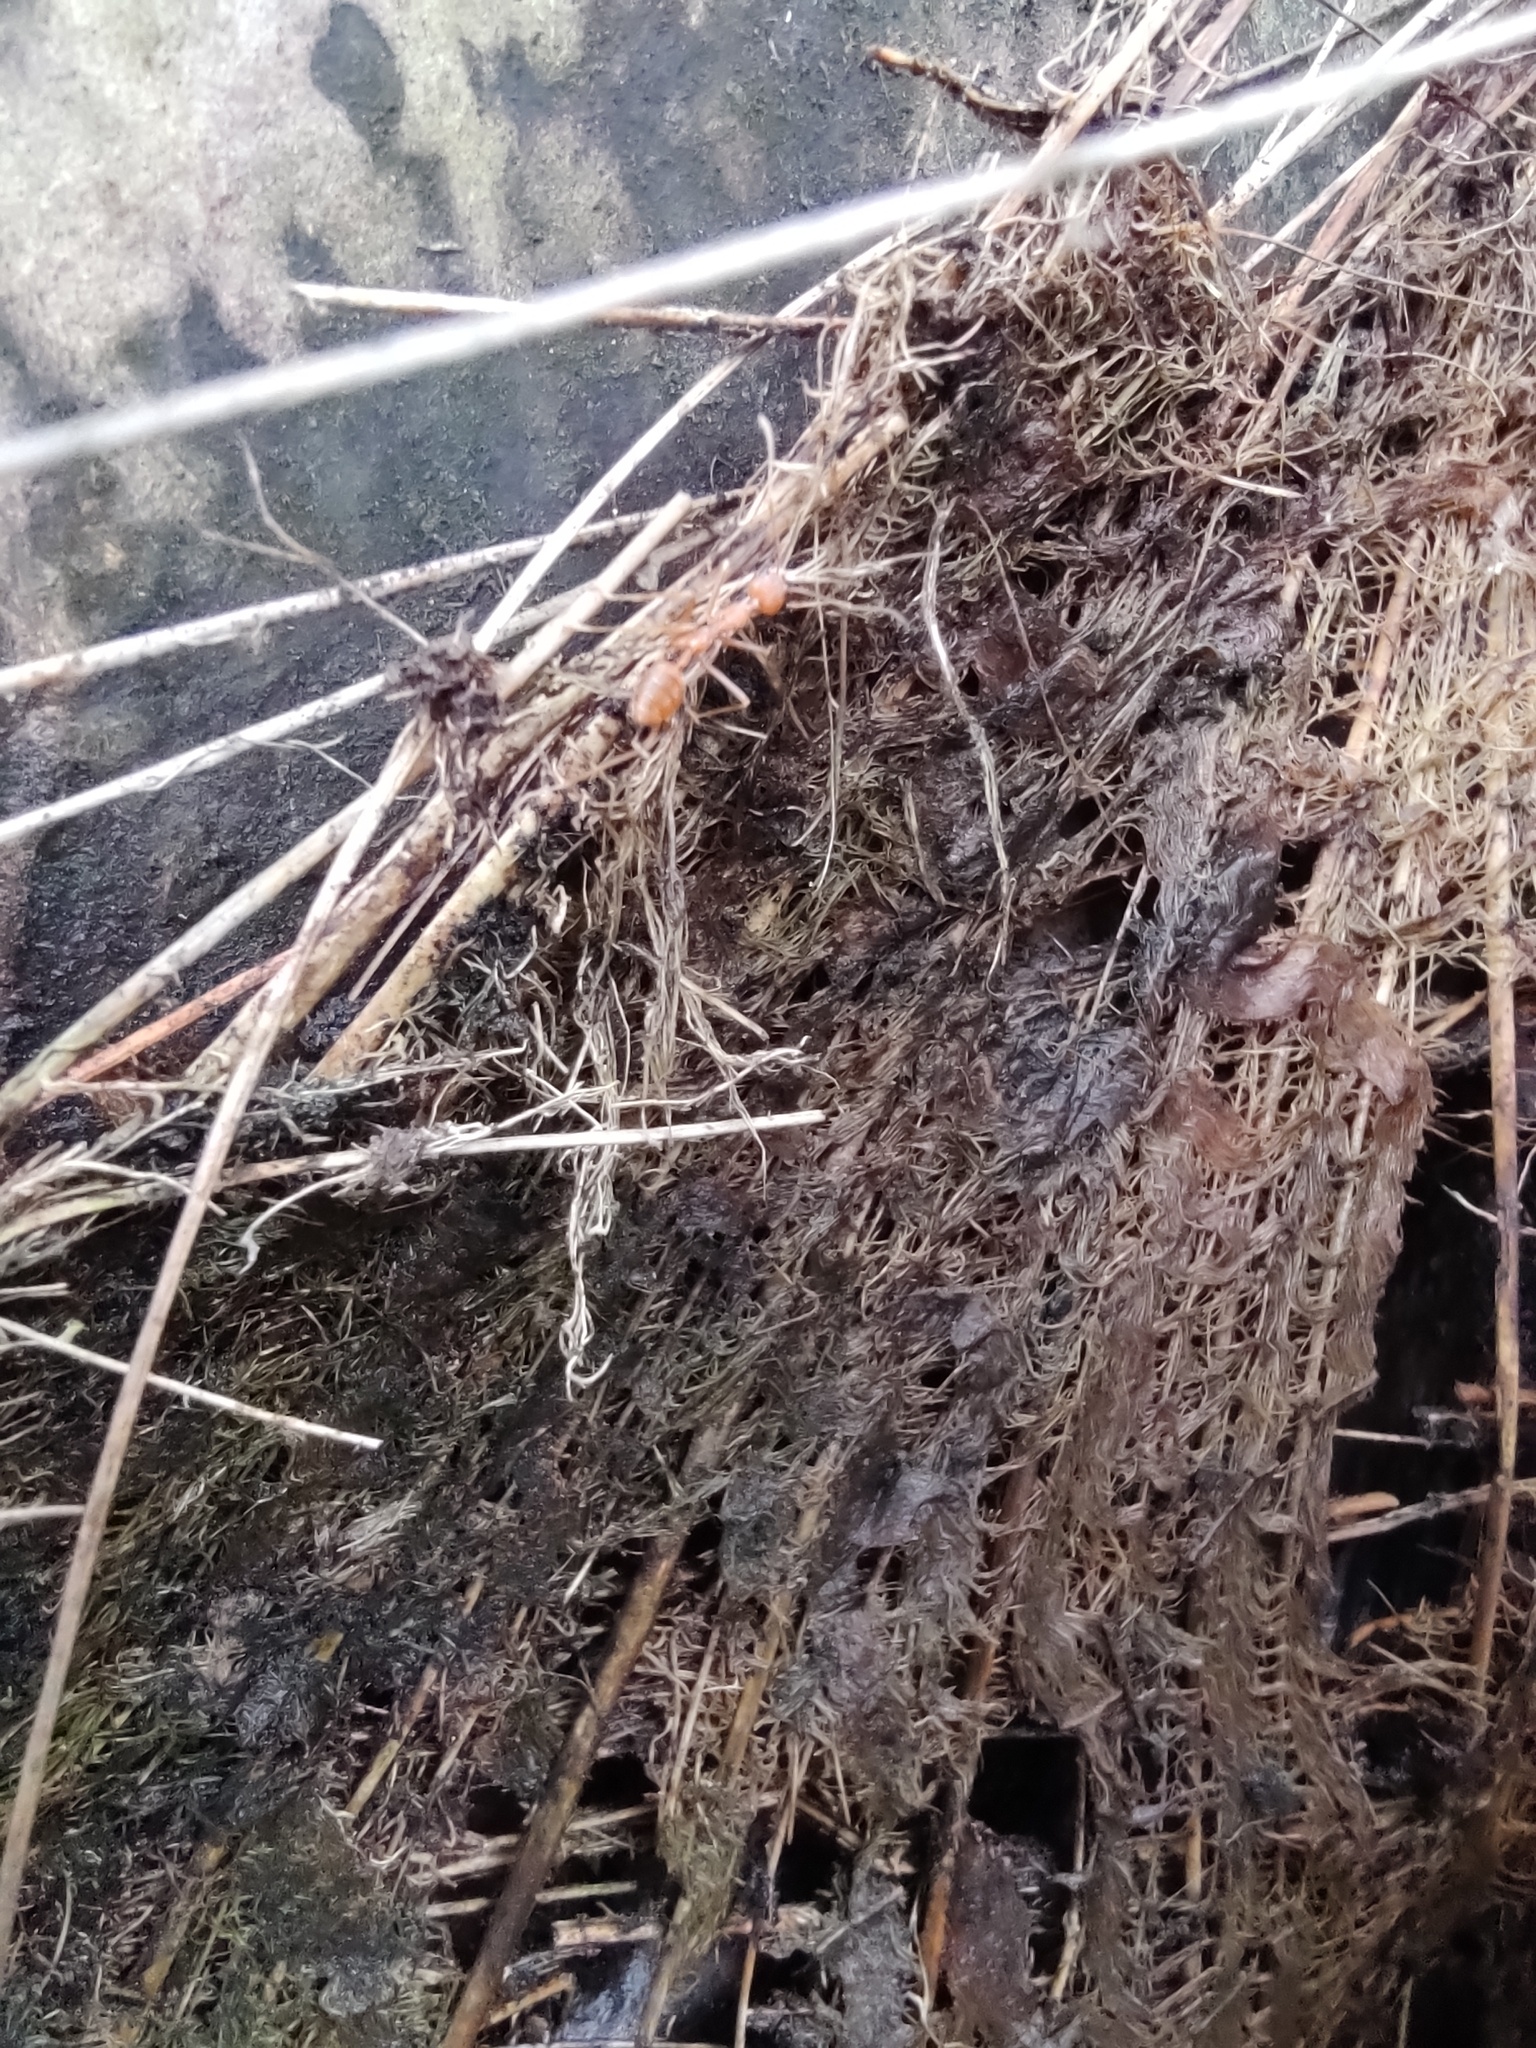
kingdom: Animalia
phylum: Arthropoda
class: Insecta
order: Hymenoptera
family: Formicidae
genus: Oecophylla
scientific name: Oecophylla smaragdina
